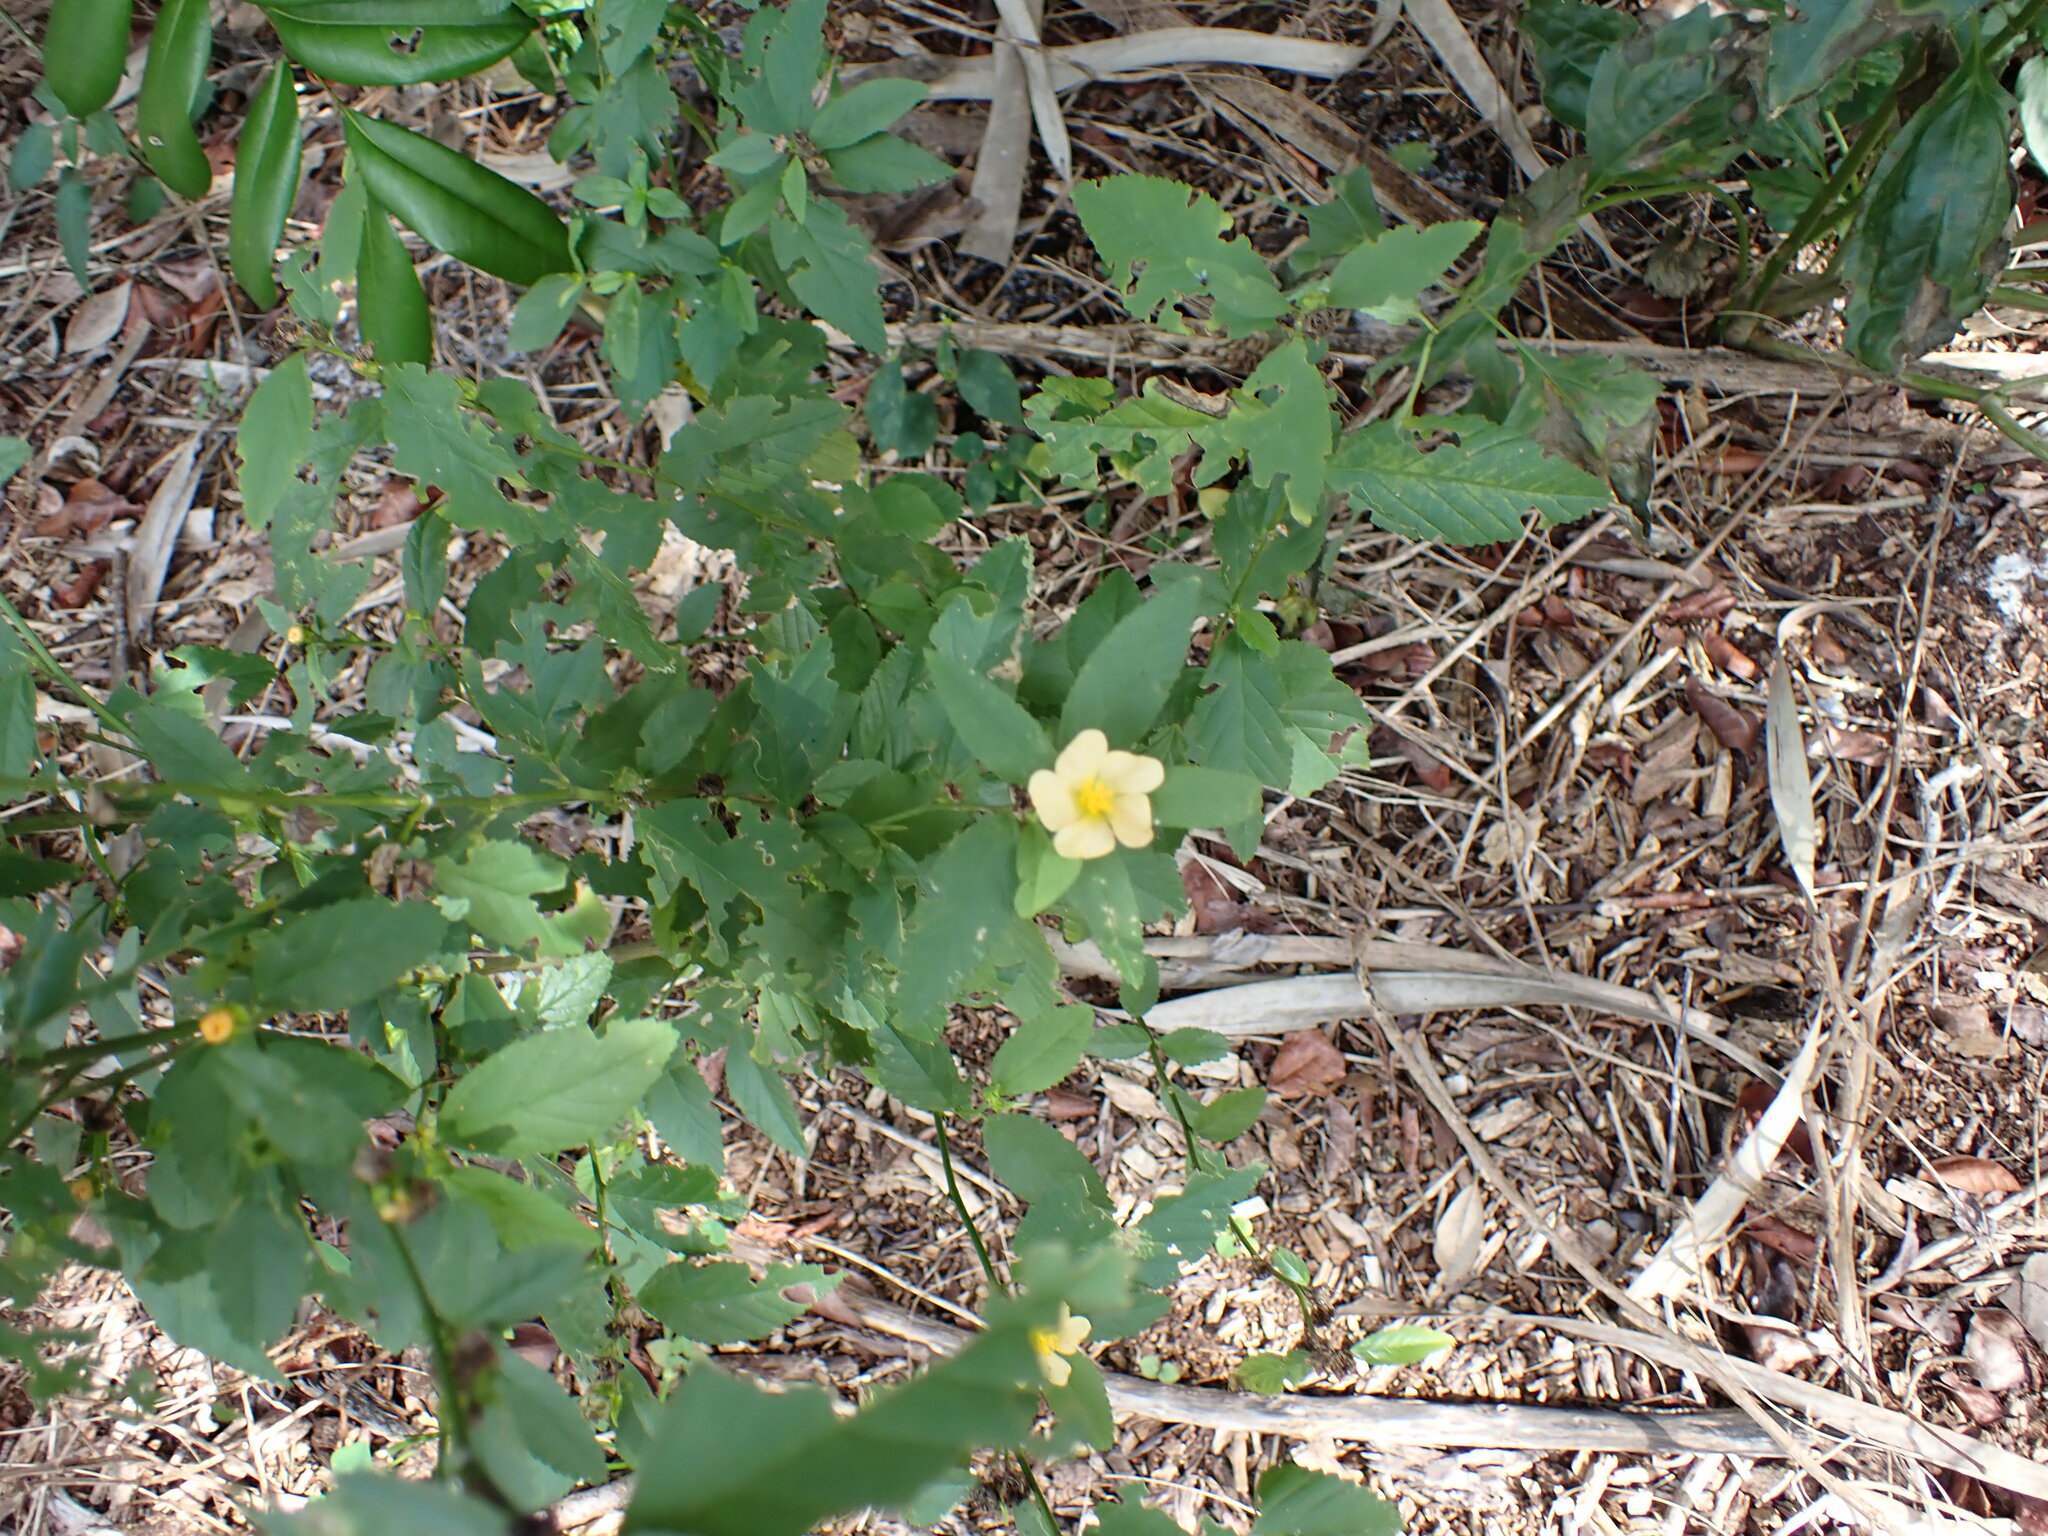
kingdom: Plantae
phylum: Tracheophyta
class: Magnoliopsida
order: Malvales
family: Malvaceae
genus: Sida
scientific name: Sida ulmifolia
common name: Broom weed
